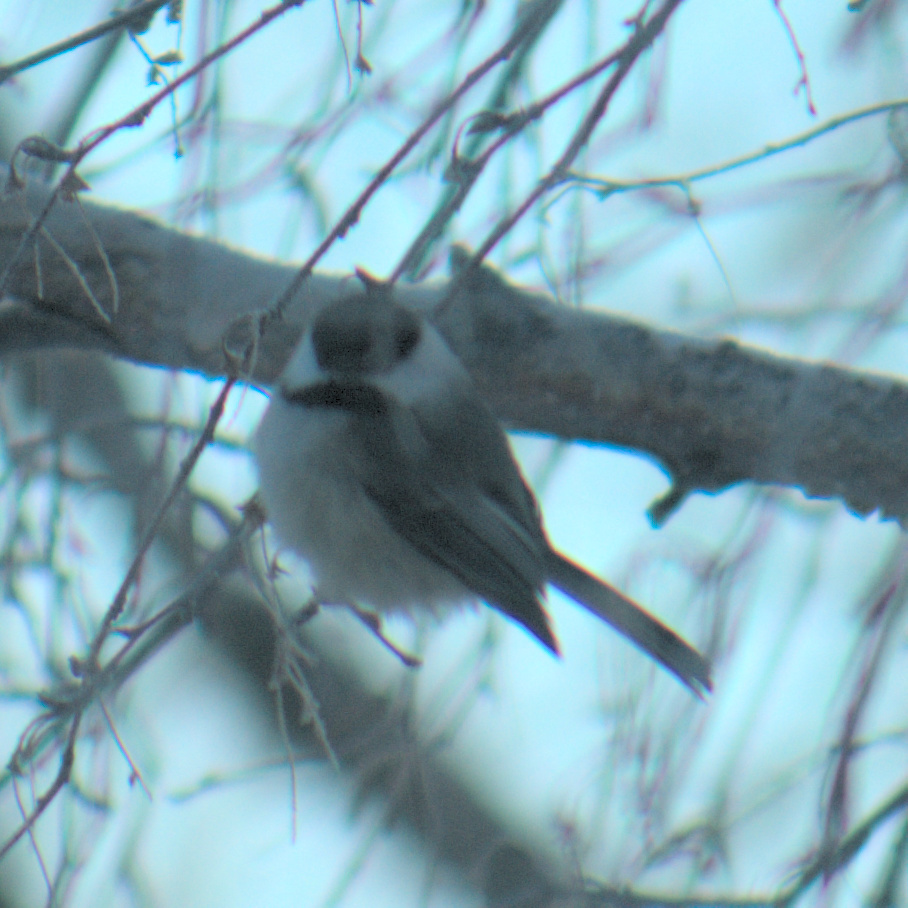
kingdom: Animalia
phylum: Chordata
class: Aves
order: Passeriformes
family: Paridae
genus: Poecile
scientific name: Poecile atricapillus
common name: Black-capped chickadee
